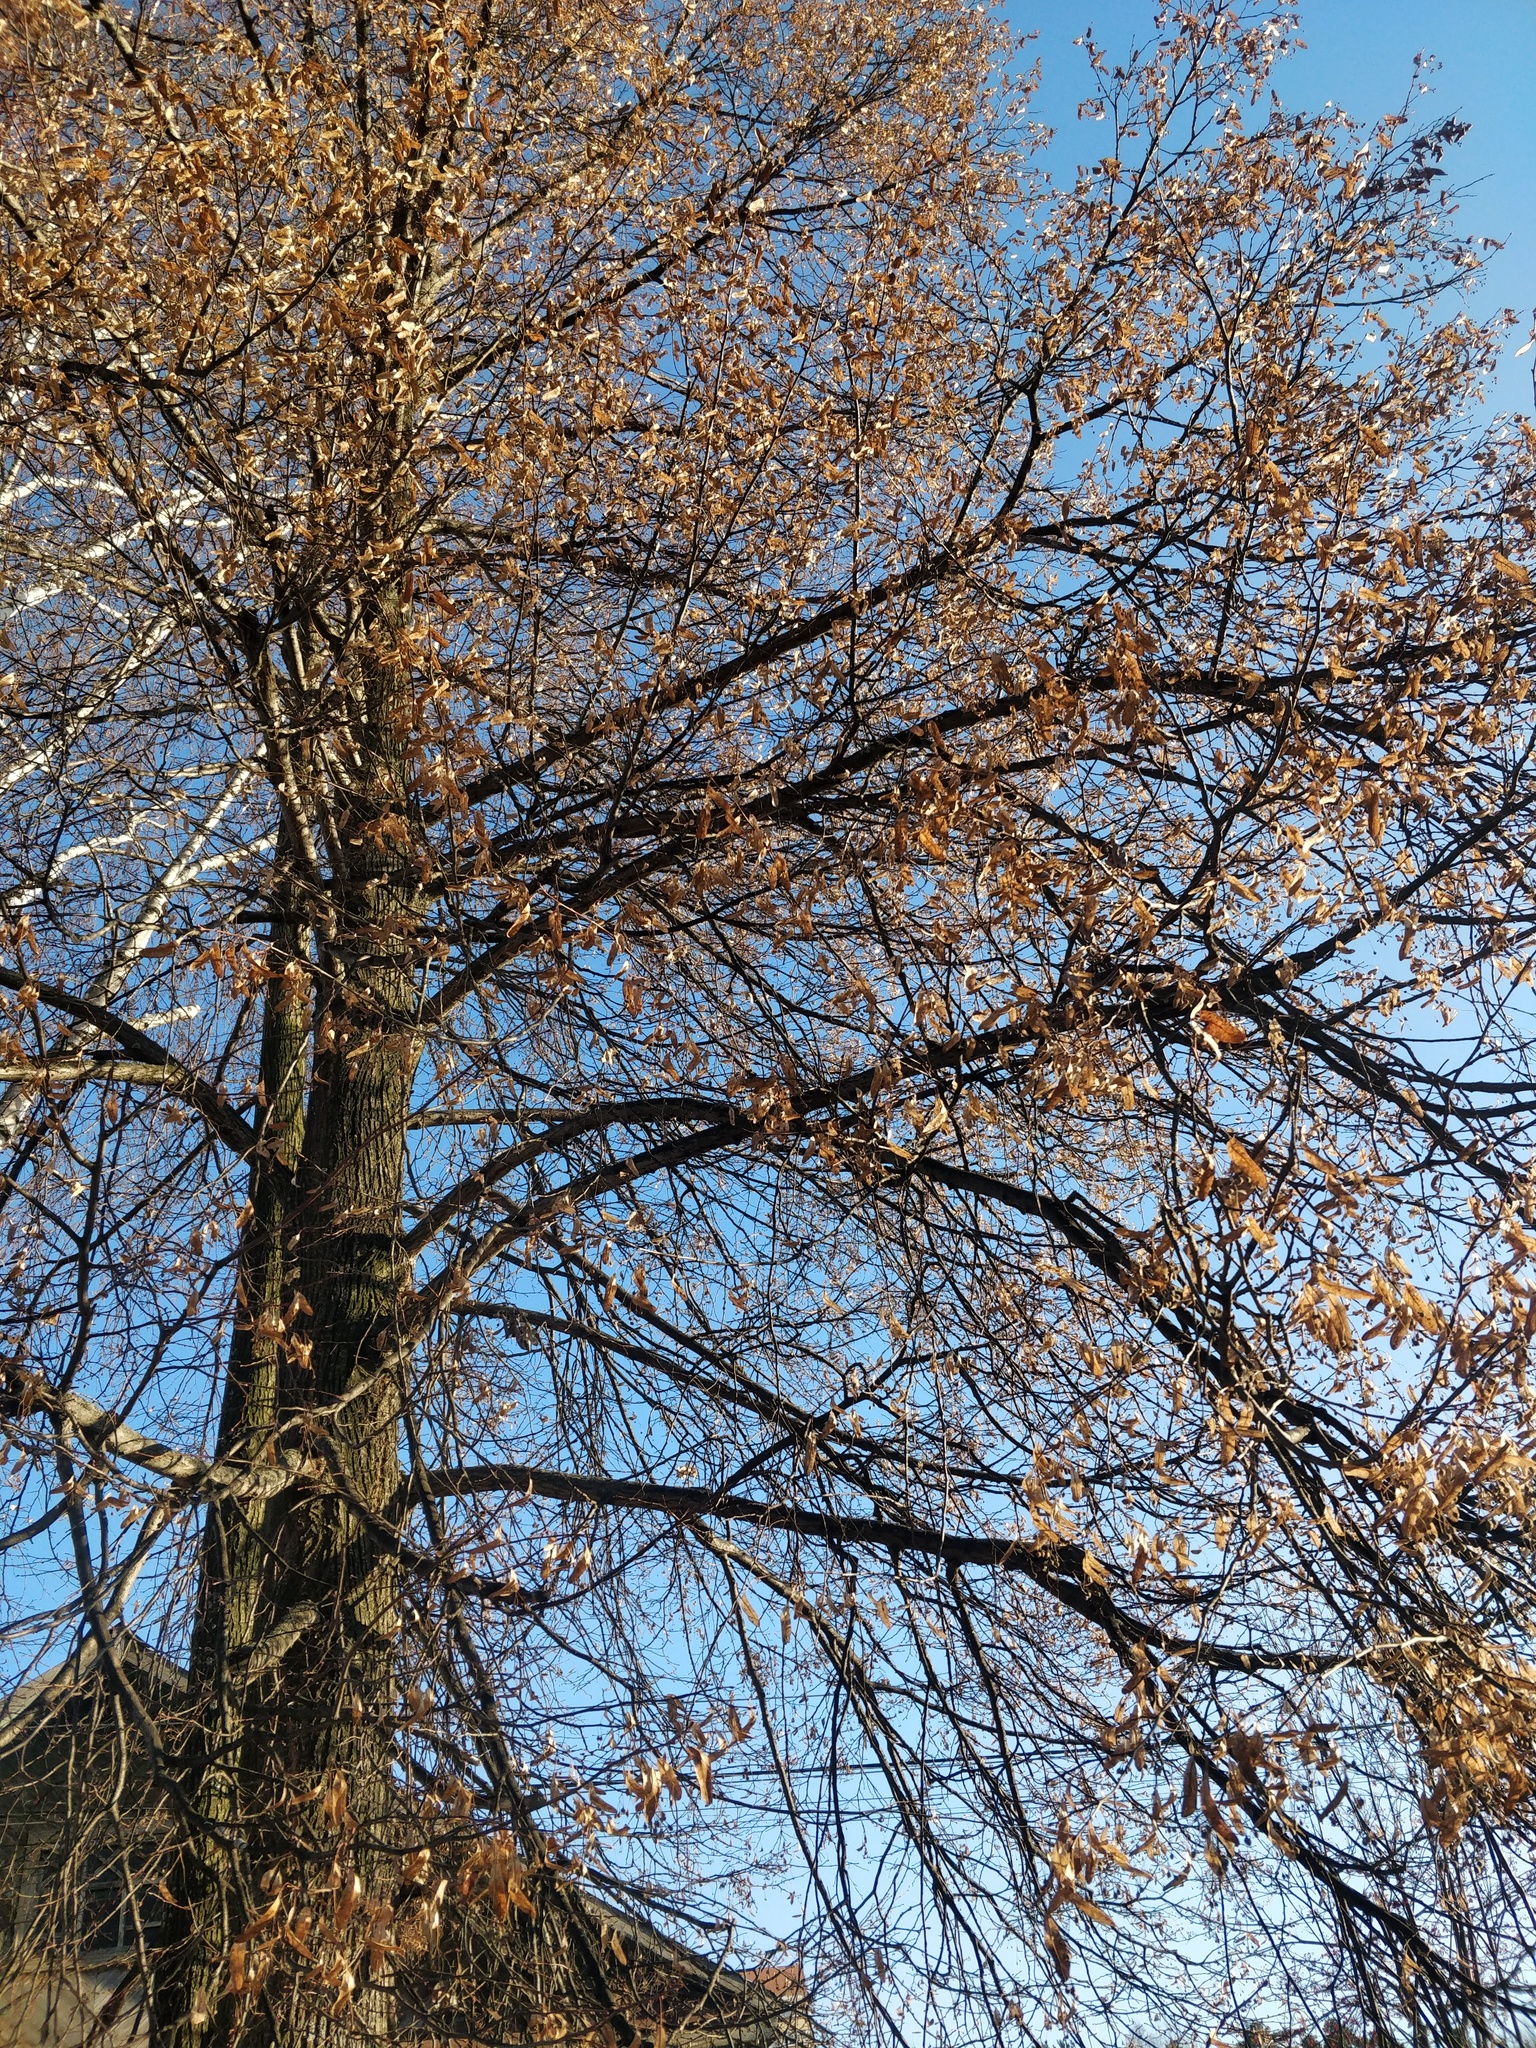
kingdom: Plantae
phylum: Tracheophyta
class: Magnoliopsida
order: Malvales
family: Malvaceae
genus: Tilia
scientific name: Tilia cordata
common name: Small-leaved lime
